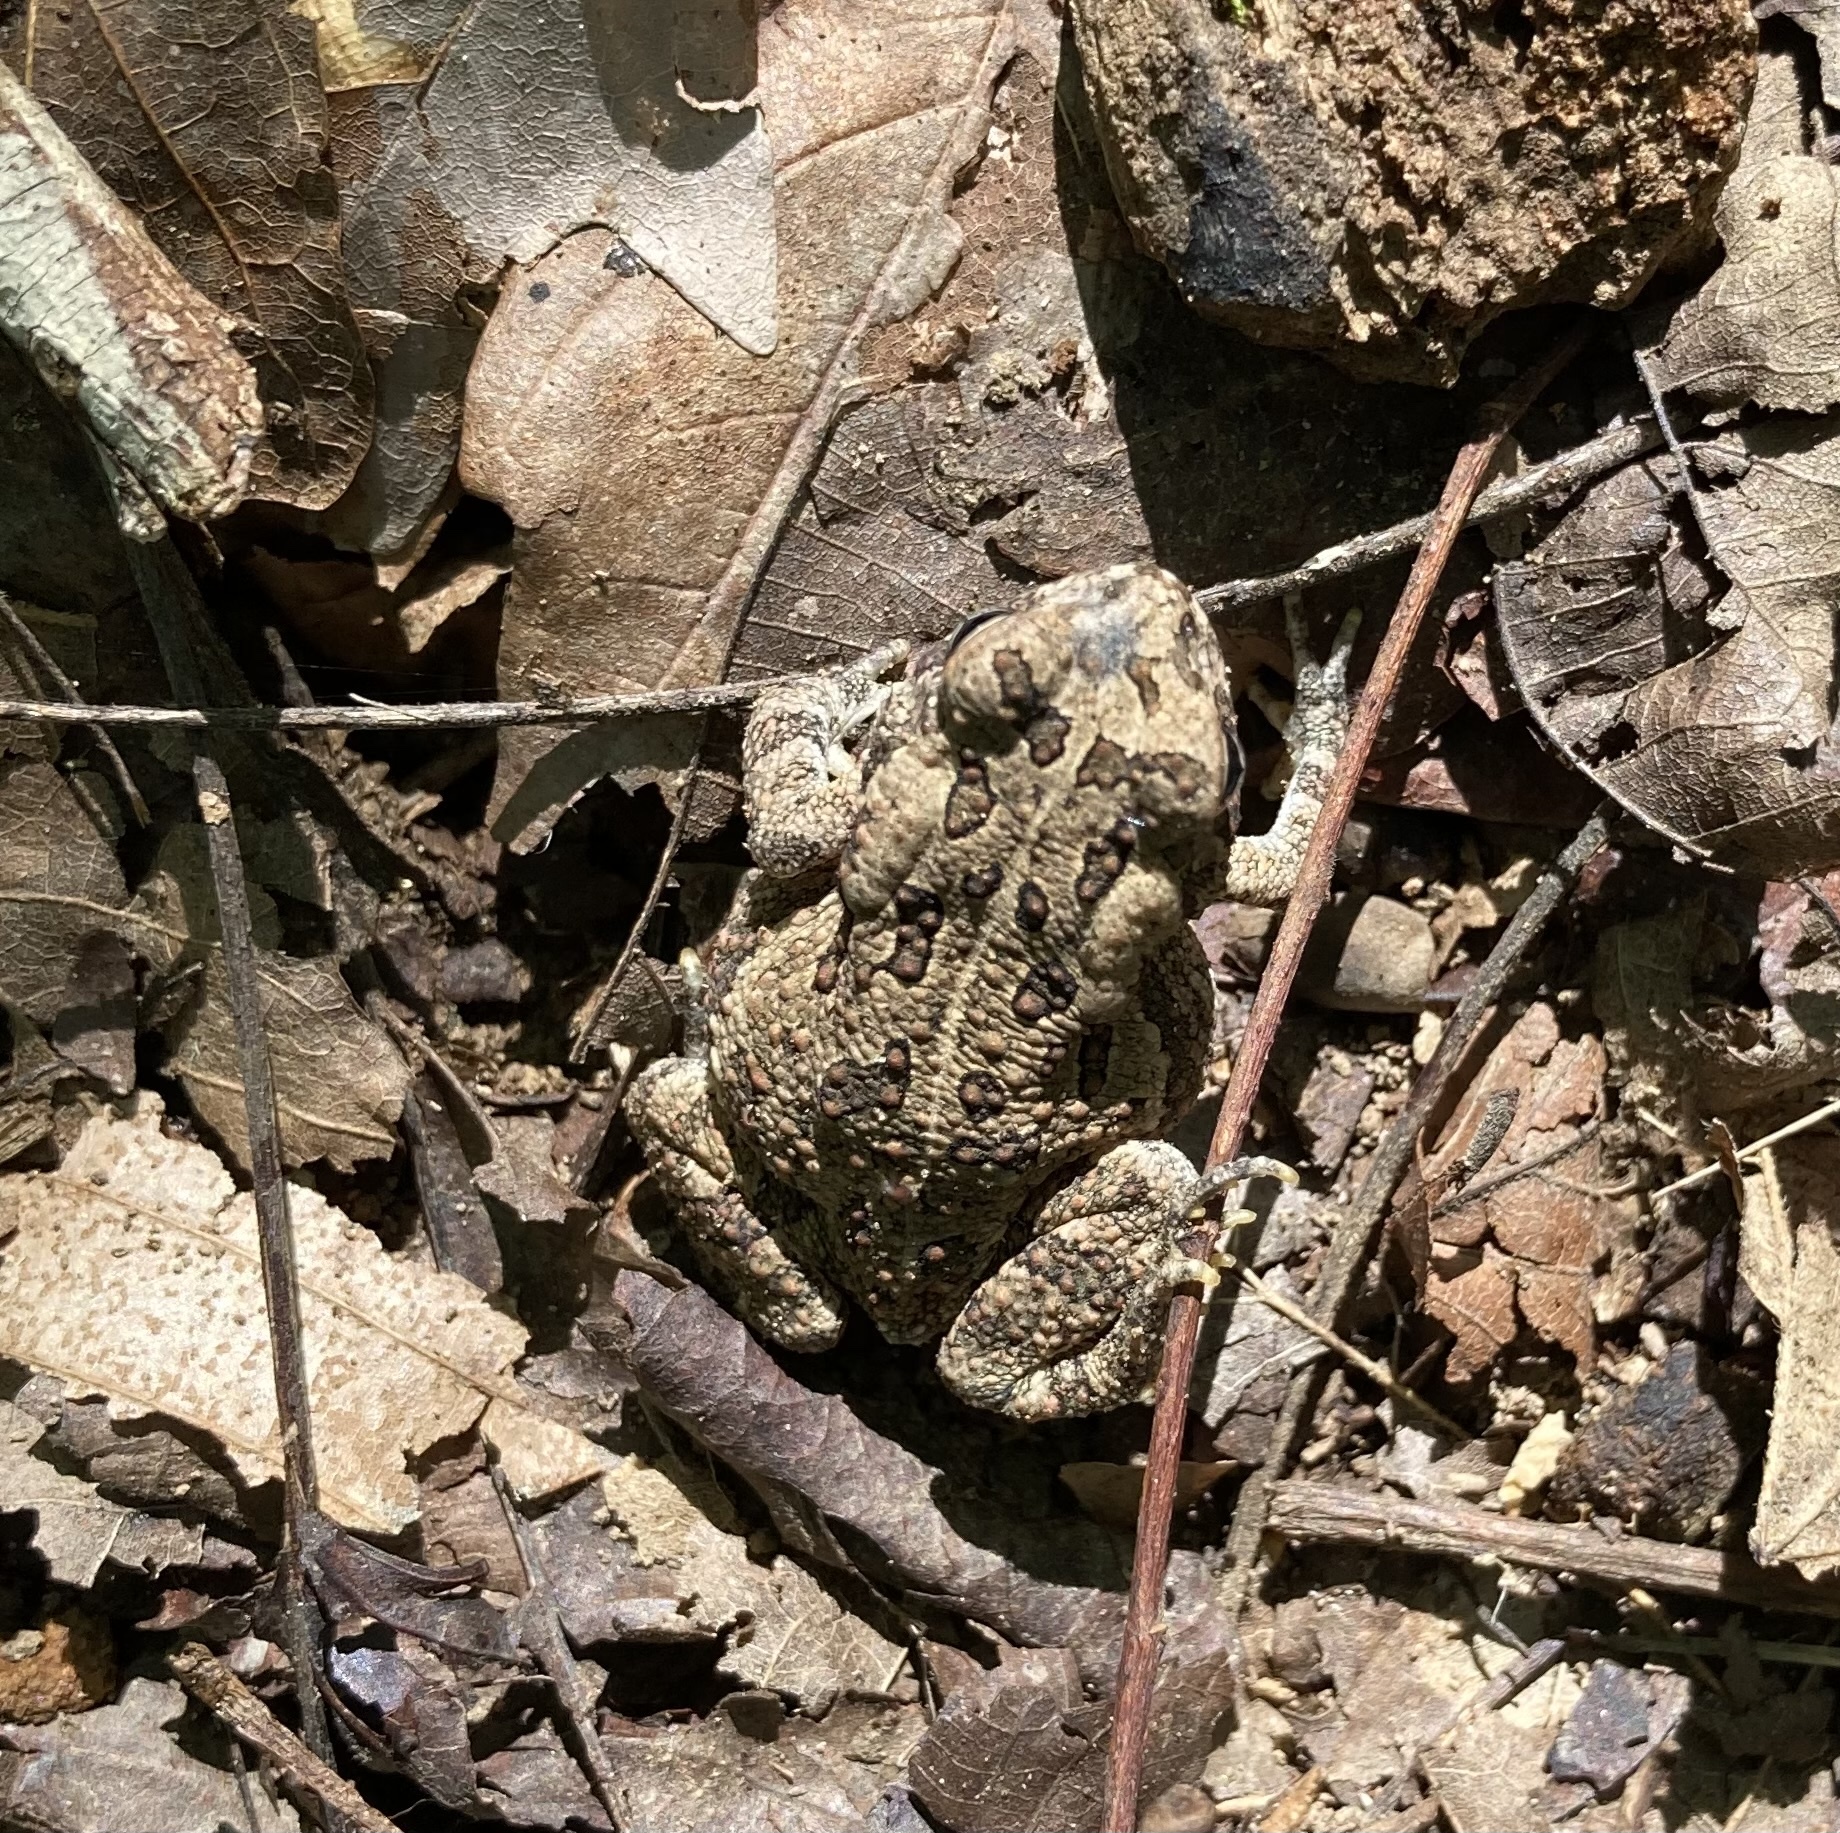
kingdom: Animalia
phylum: Chordata
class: Amphibia
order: Anura
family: Bufonidae
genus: Anaxyrus
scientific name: Anaxyrus fowleri
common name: Fowler's toad
